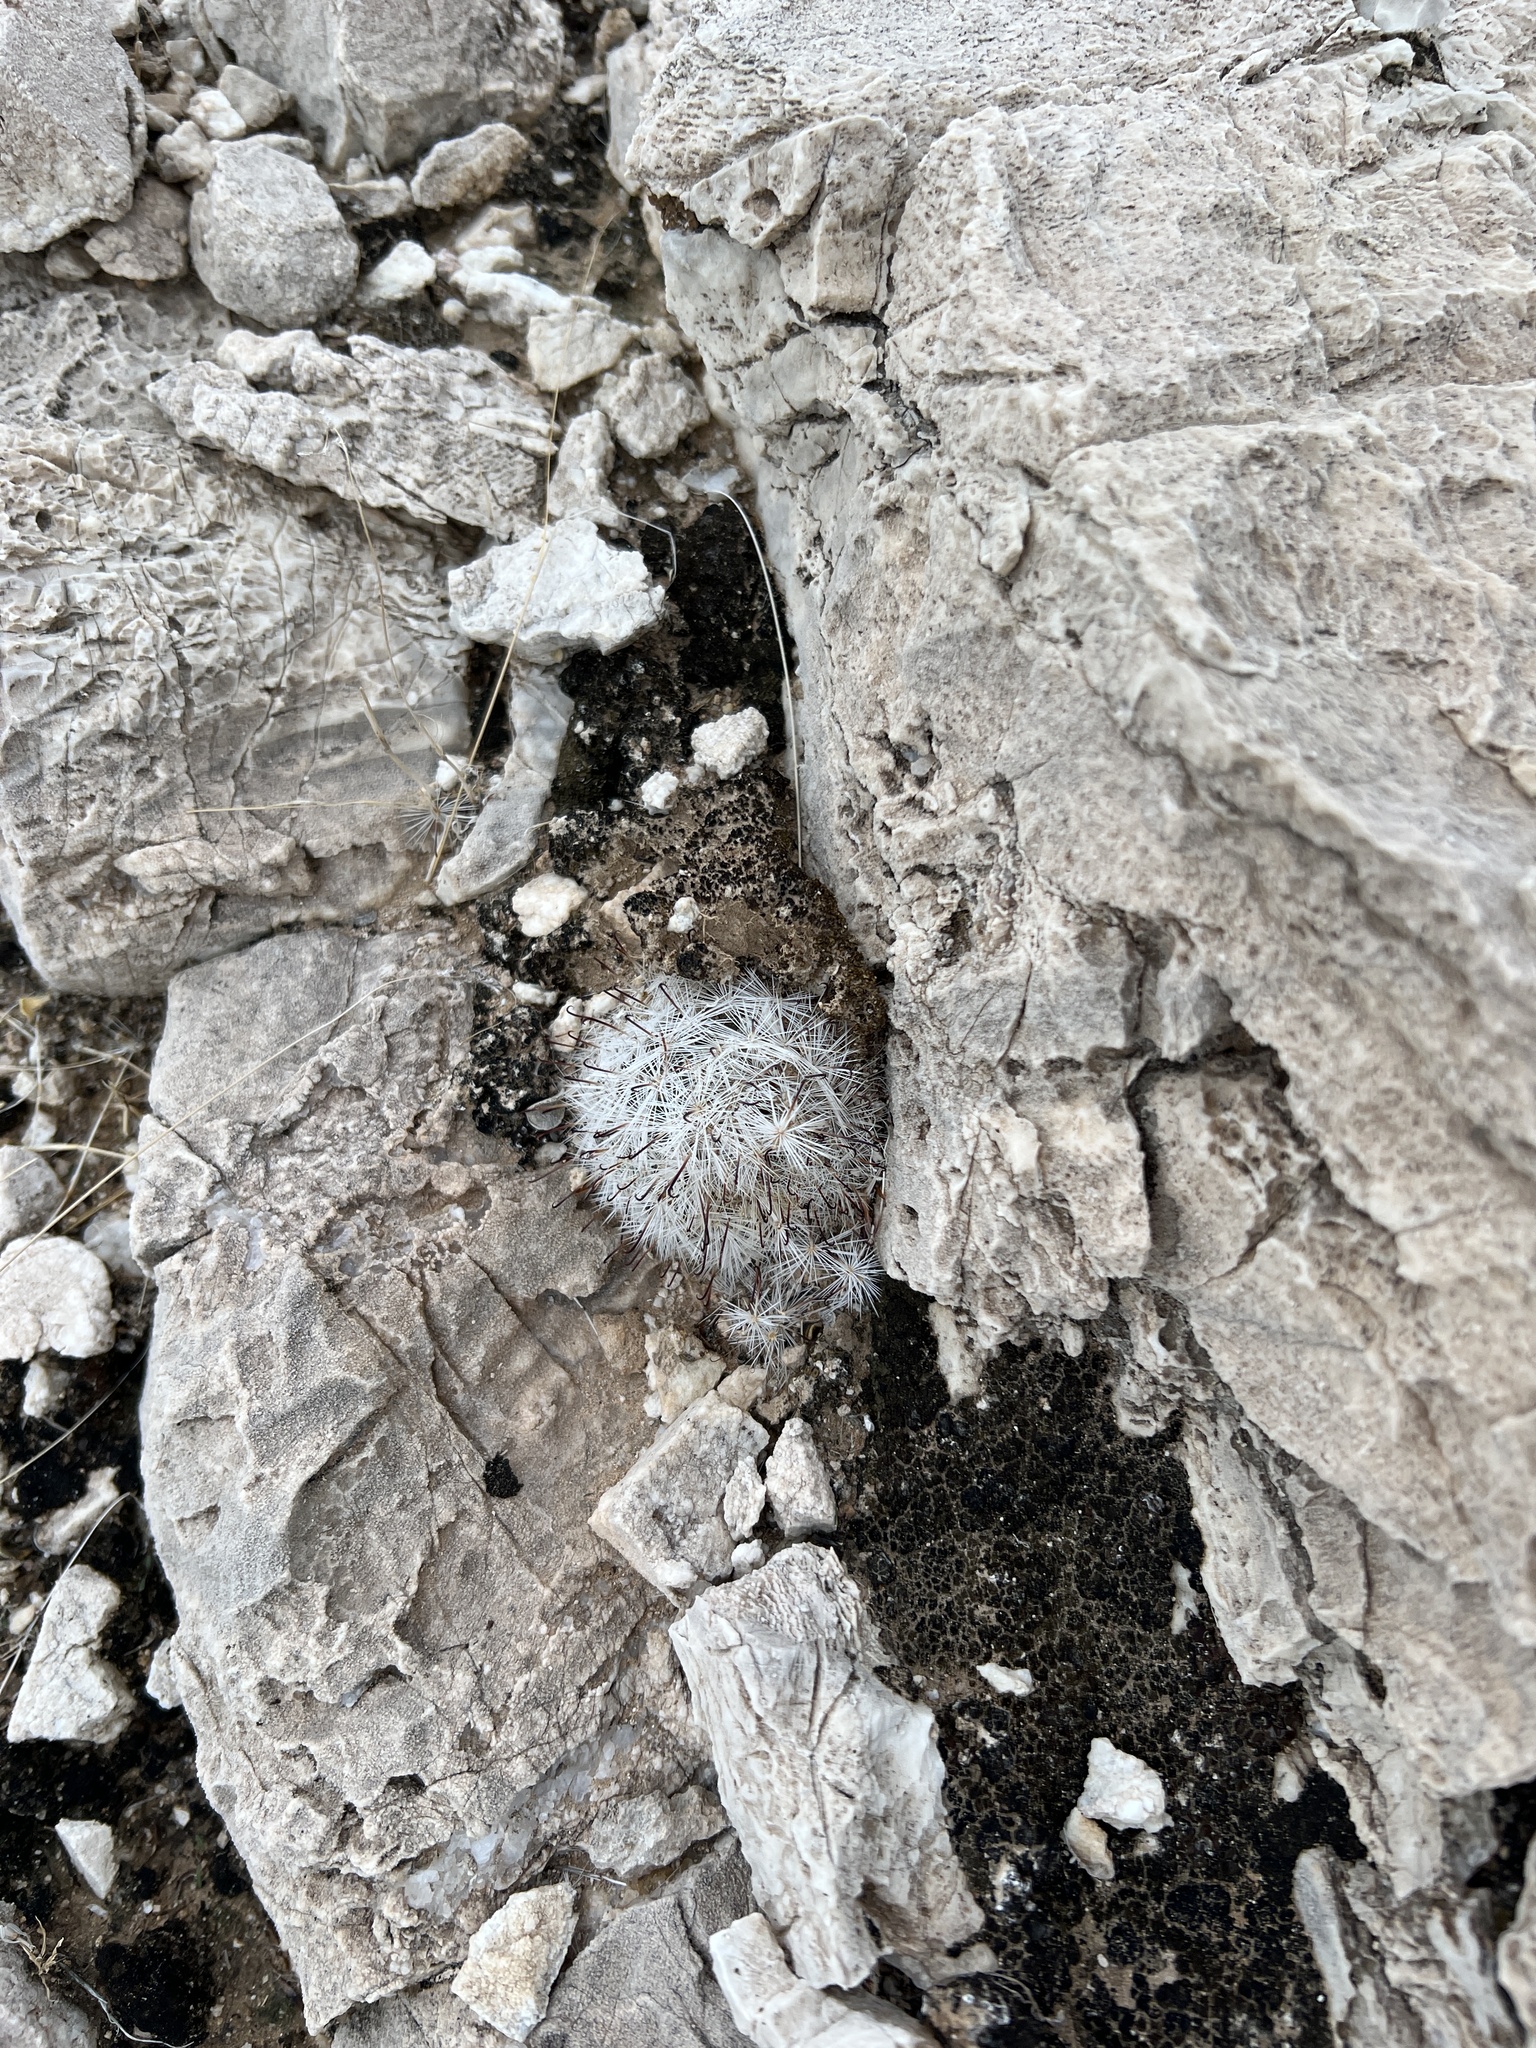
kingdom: Plantae
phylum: Tracheophyta
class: Magnoliopsida
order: Caryophyllales
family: Cactaceae
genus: Cochemiea
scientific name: Cochemiea tetrancistra
